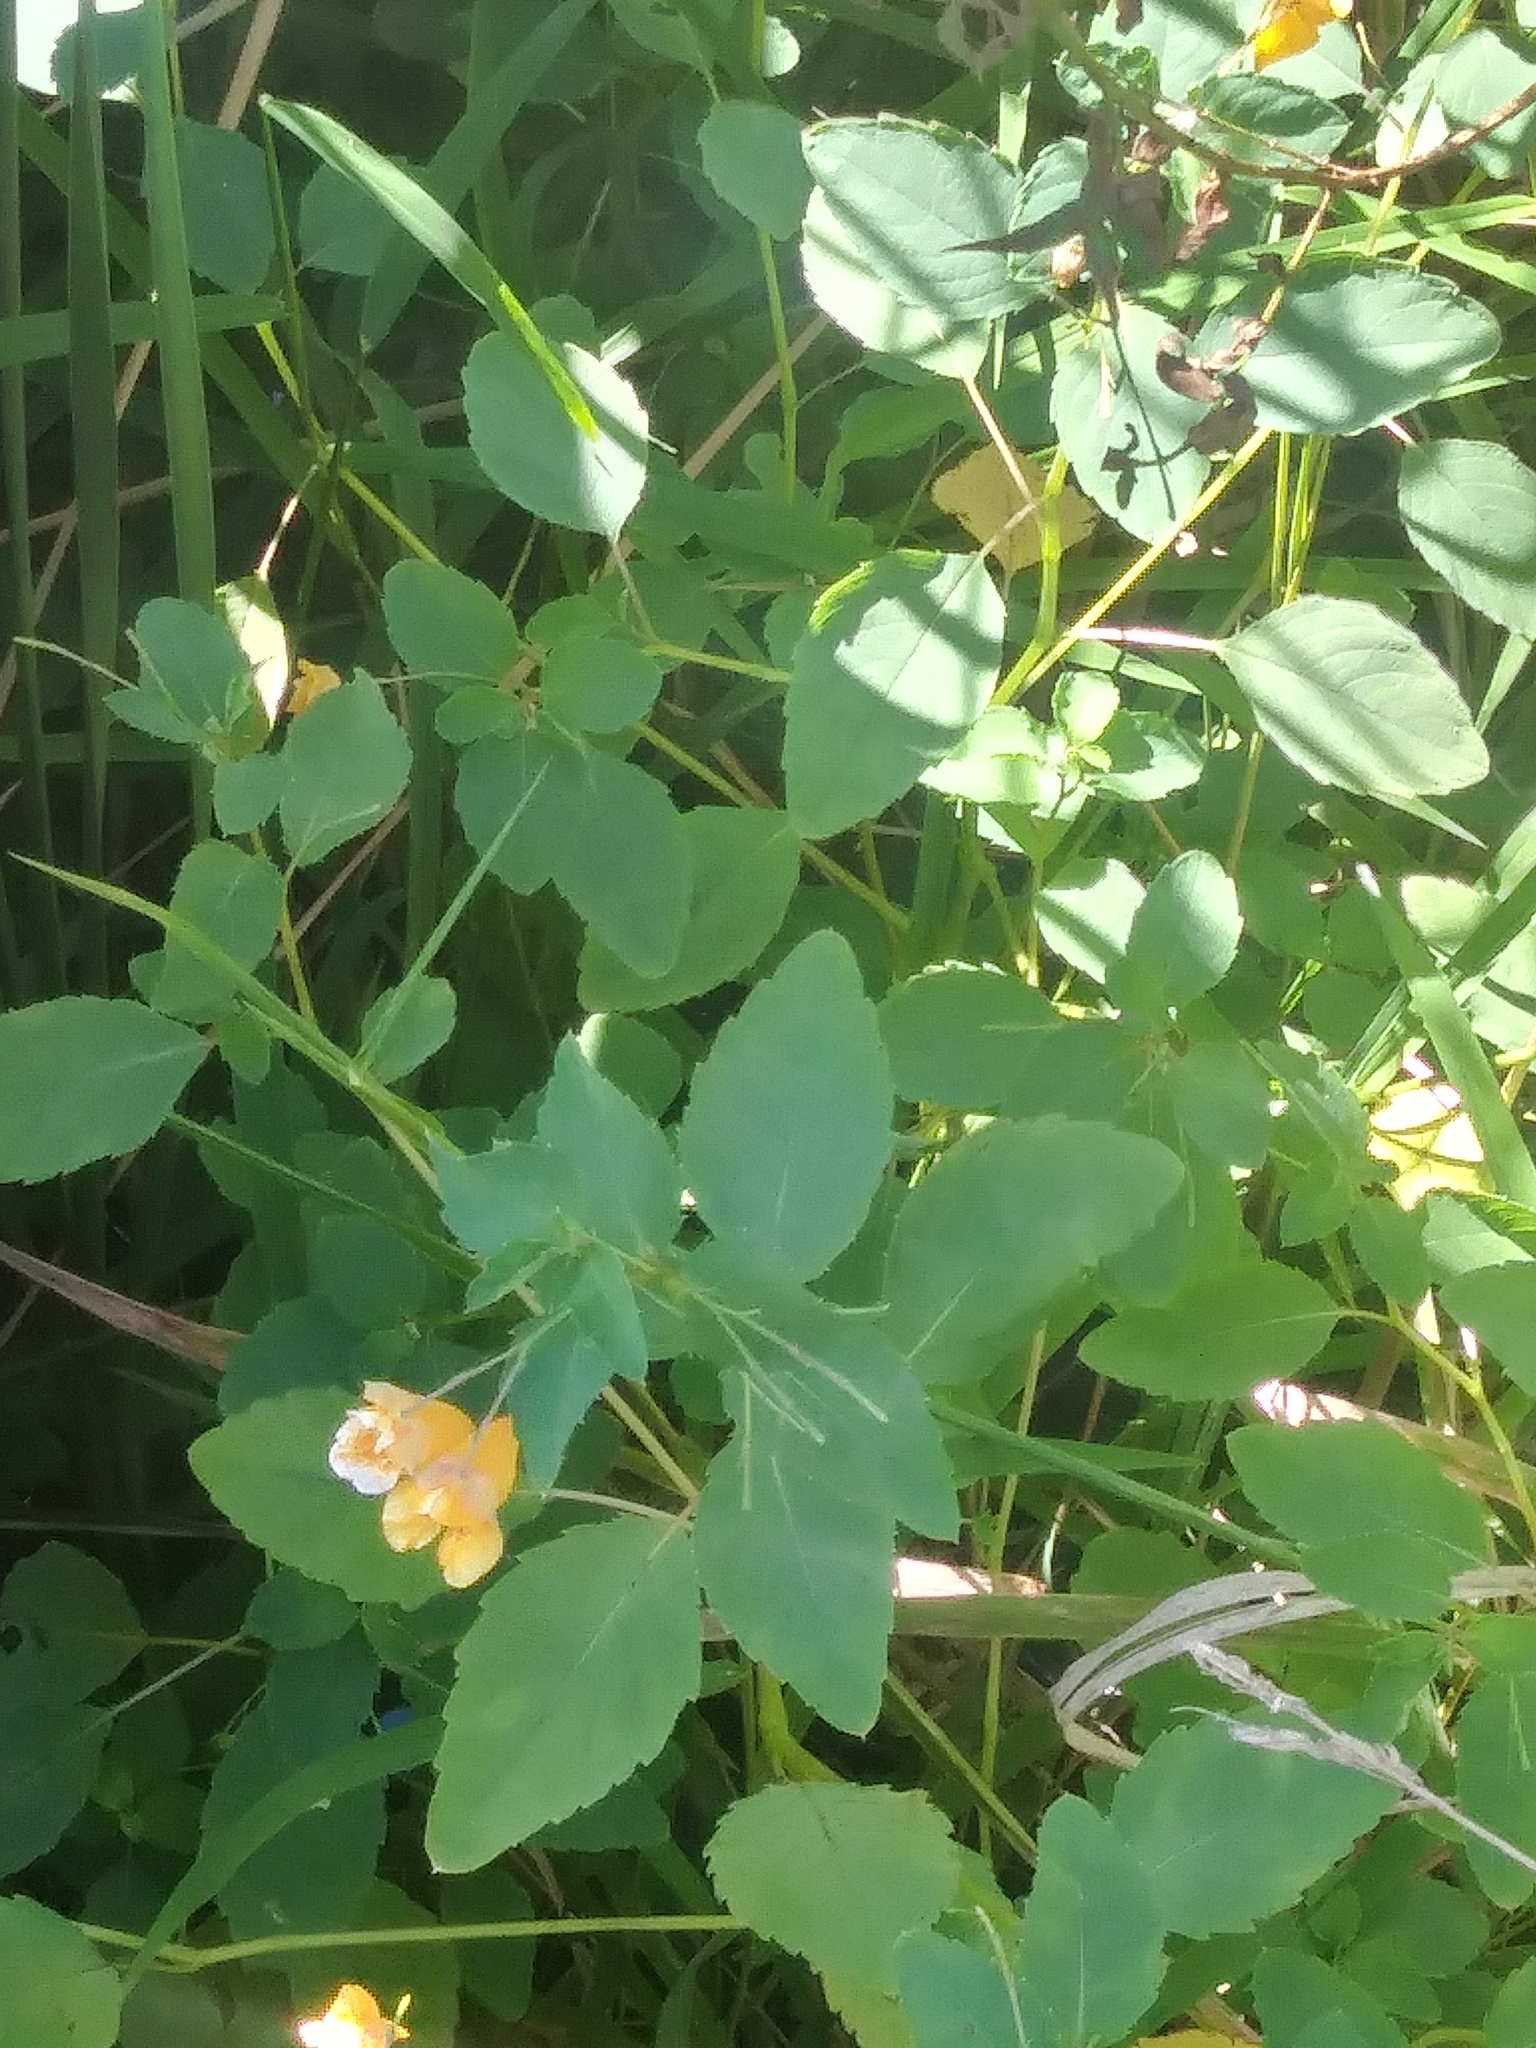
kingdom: Plantae
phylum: Tracheophyta
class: Magnoliopsida
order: Ericales
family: Balsaminaceae
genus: Impatiens
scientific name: Impatiens capensis
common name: Orange balsam
